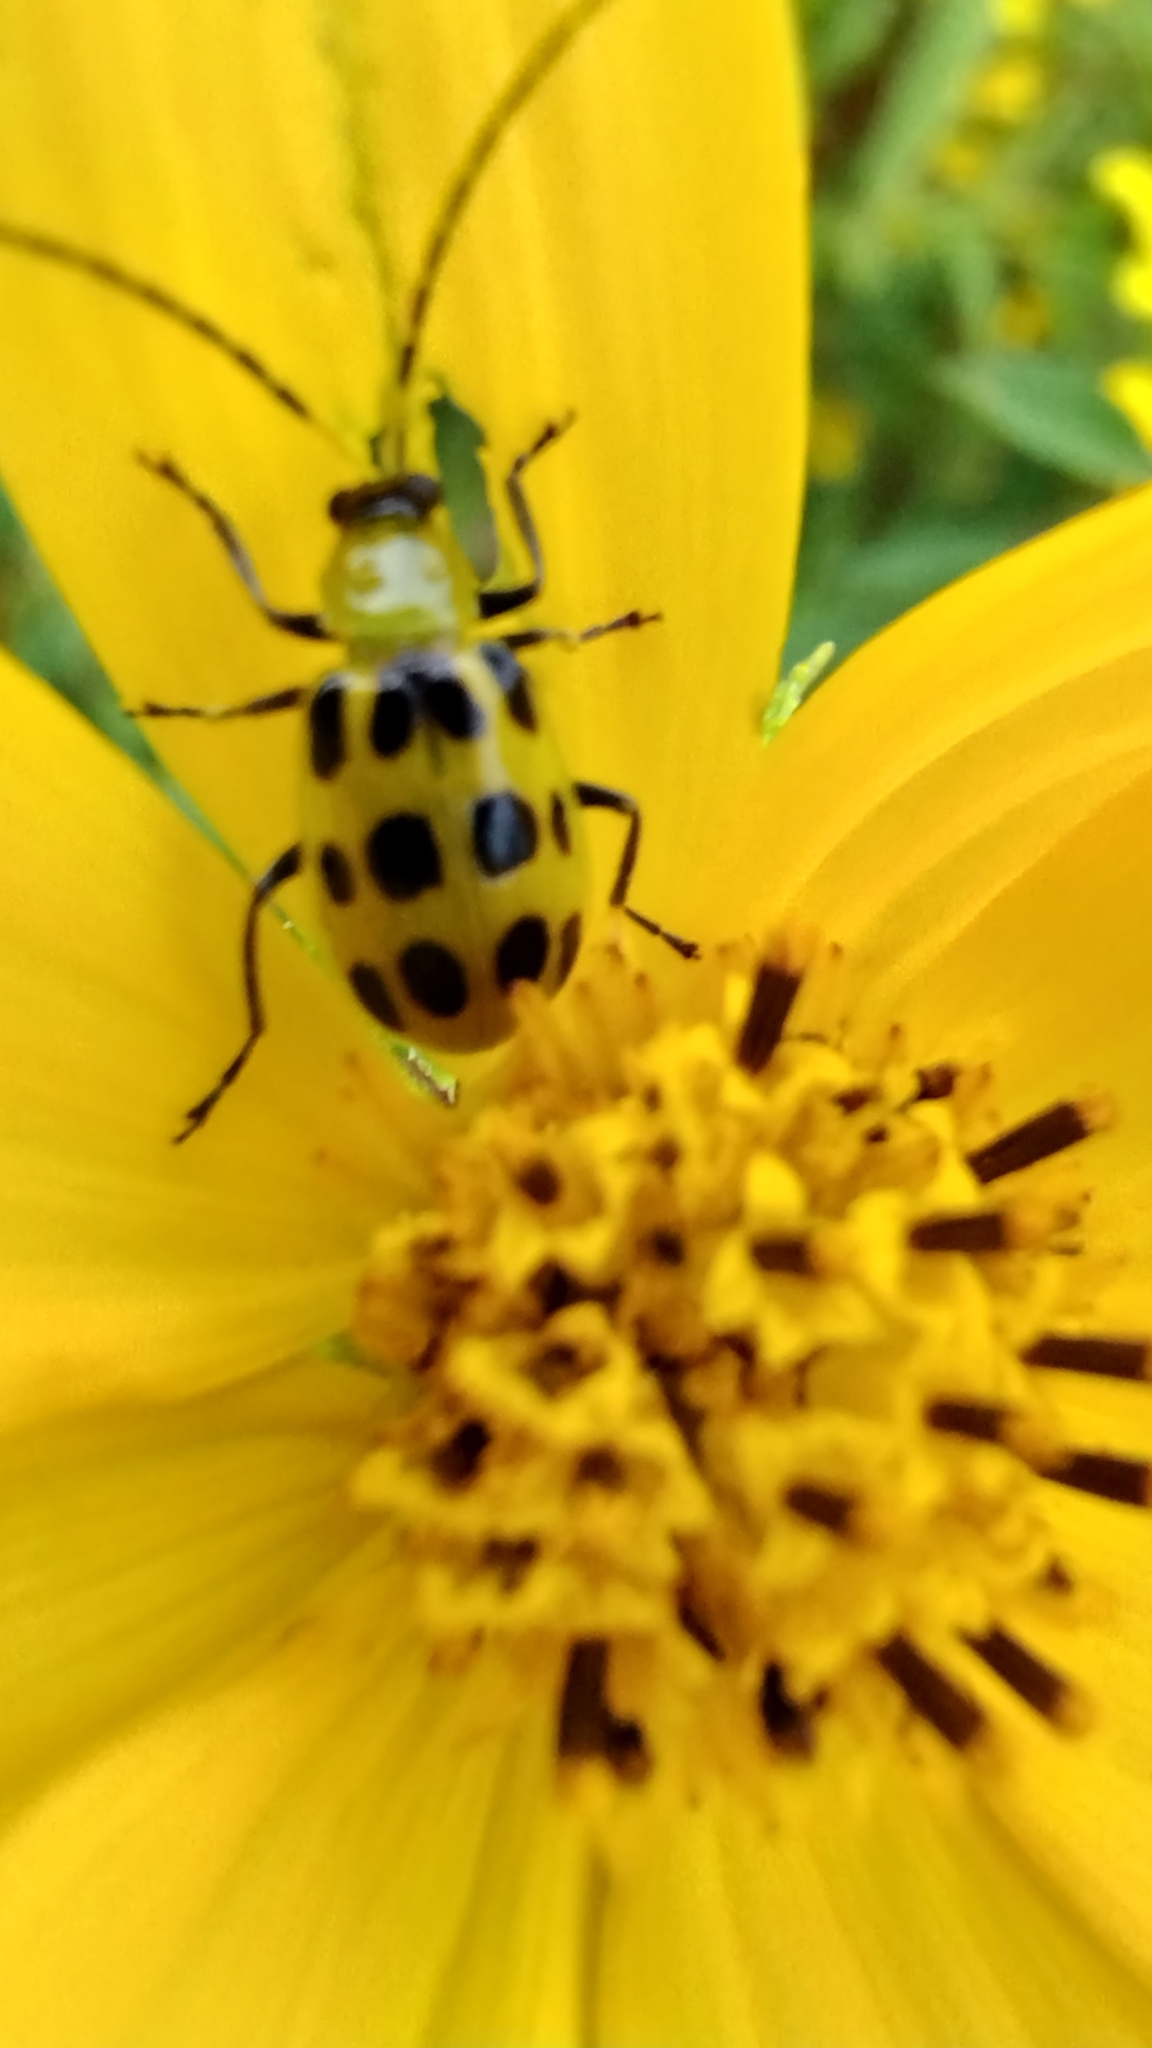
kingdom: Animalia
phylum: Arthropoda
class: Insecta
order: Coleoptera
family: Chrysomelidae
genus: Diabrotica
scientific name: Diabrotica undecimpunctata
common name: Spotted cucumber beetle
